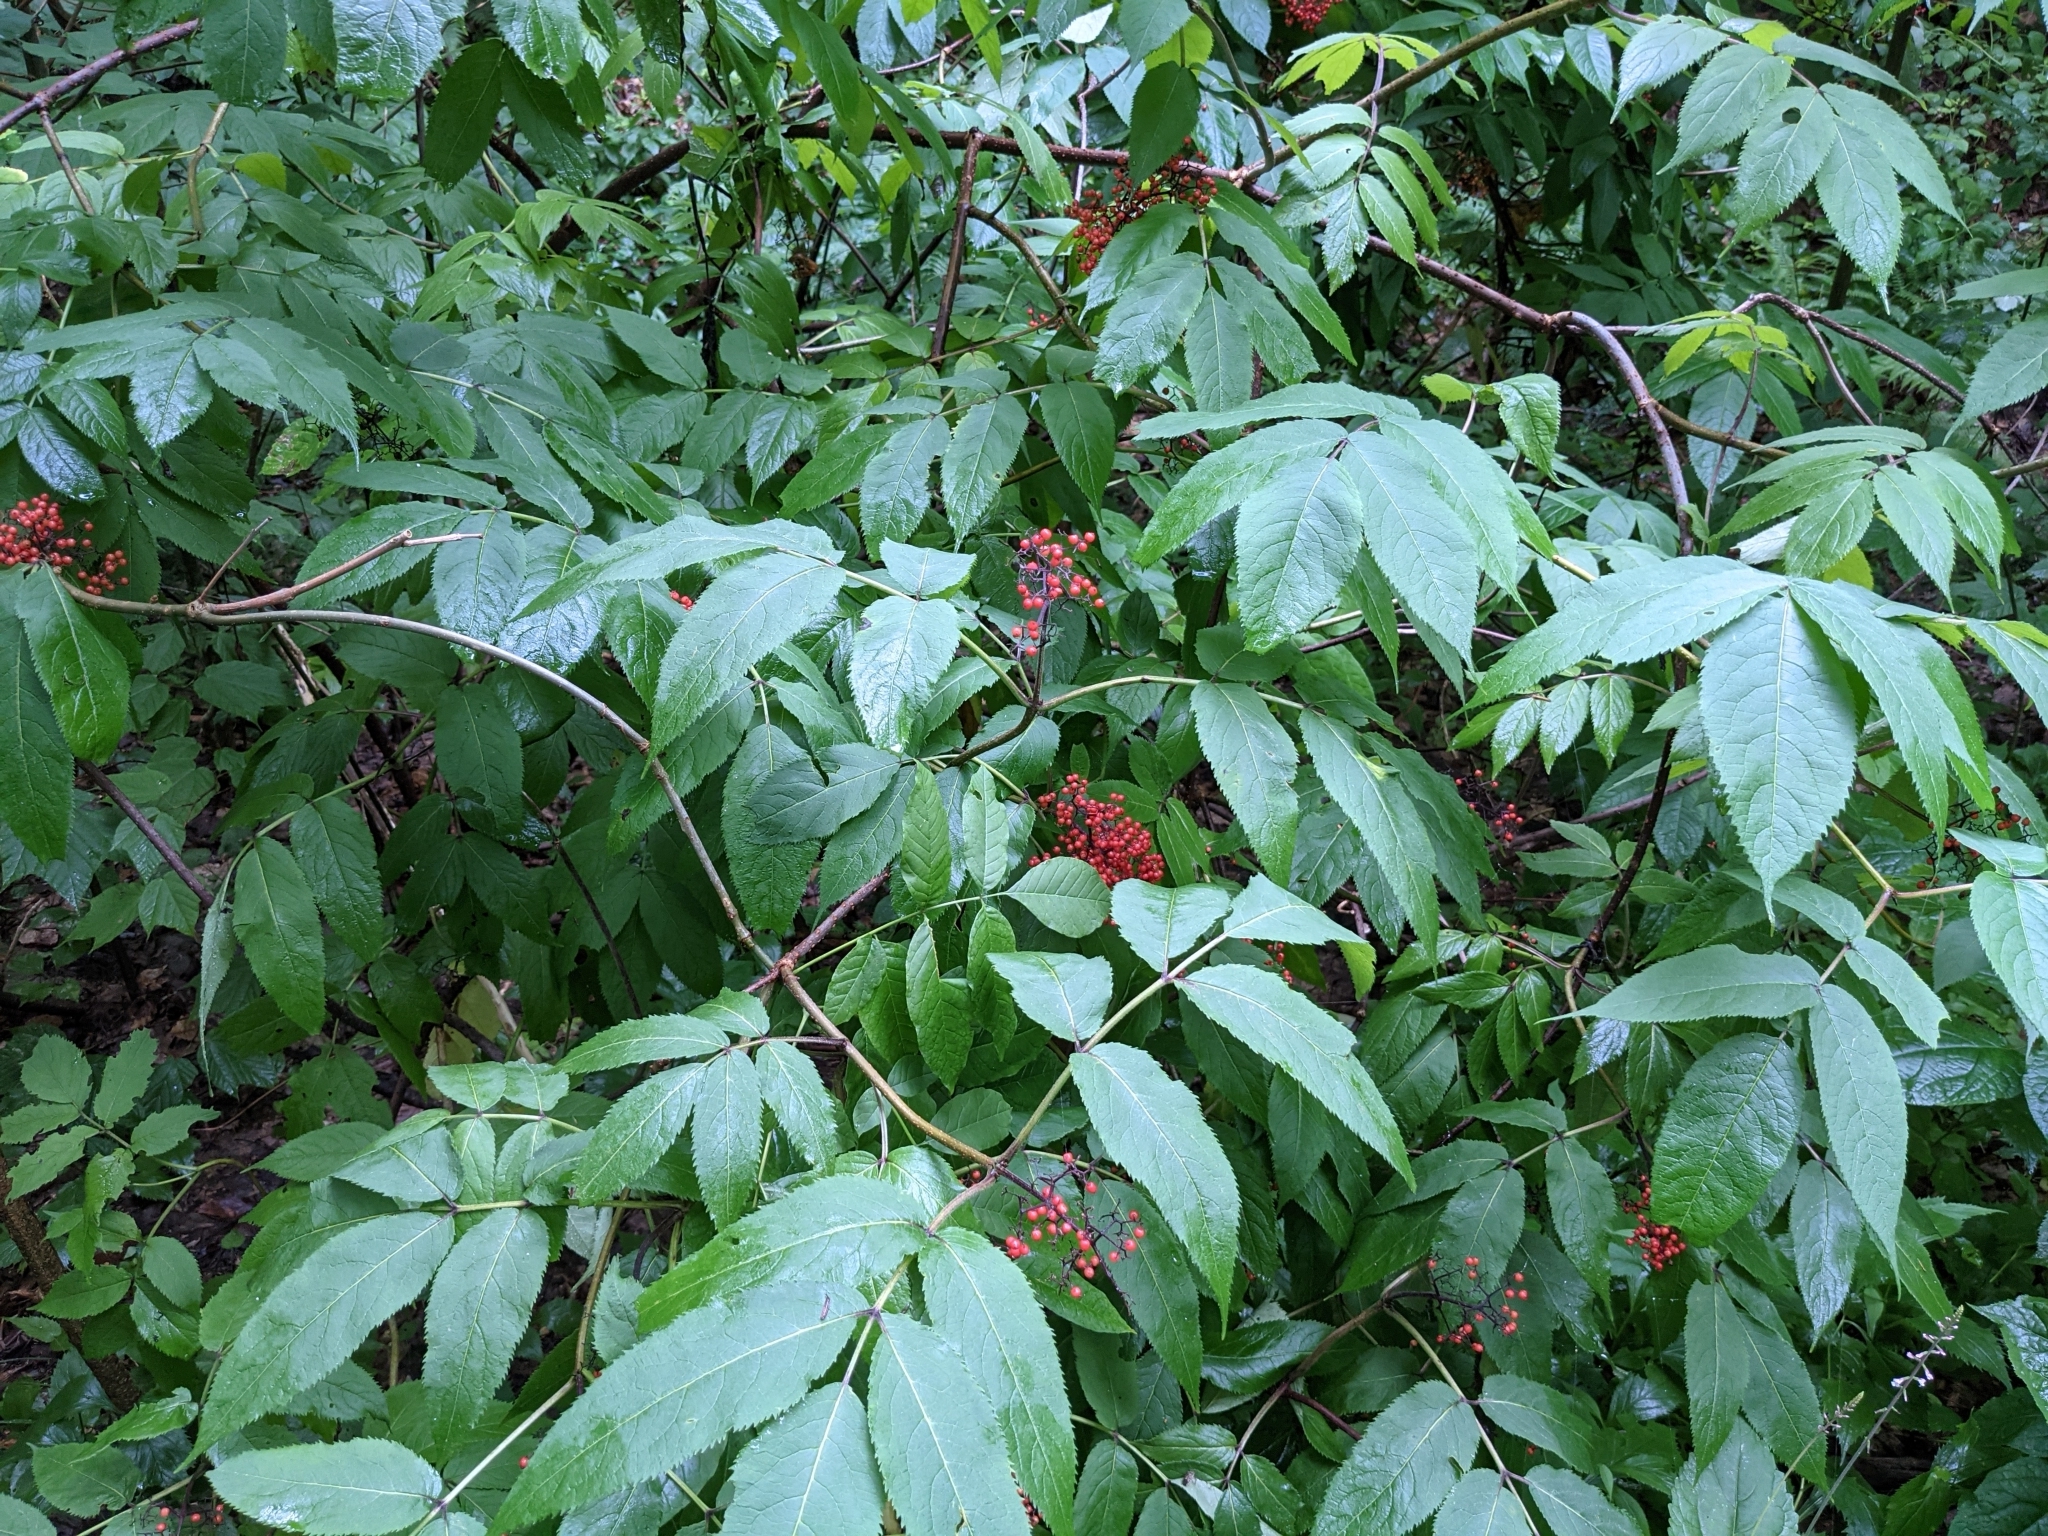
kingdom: Plantae
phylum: Tracheophyta
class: Magnoliopsida
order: Dipsacales
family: Viburnaceae
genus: Sambucus
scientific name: Sambucus racemosa
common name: Red-berried elder
